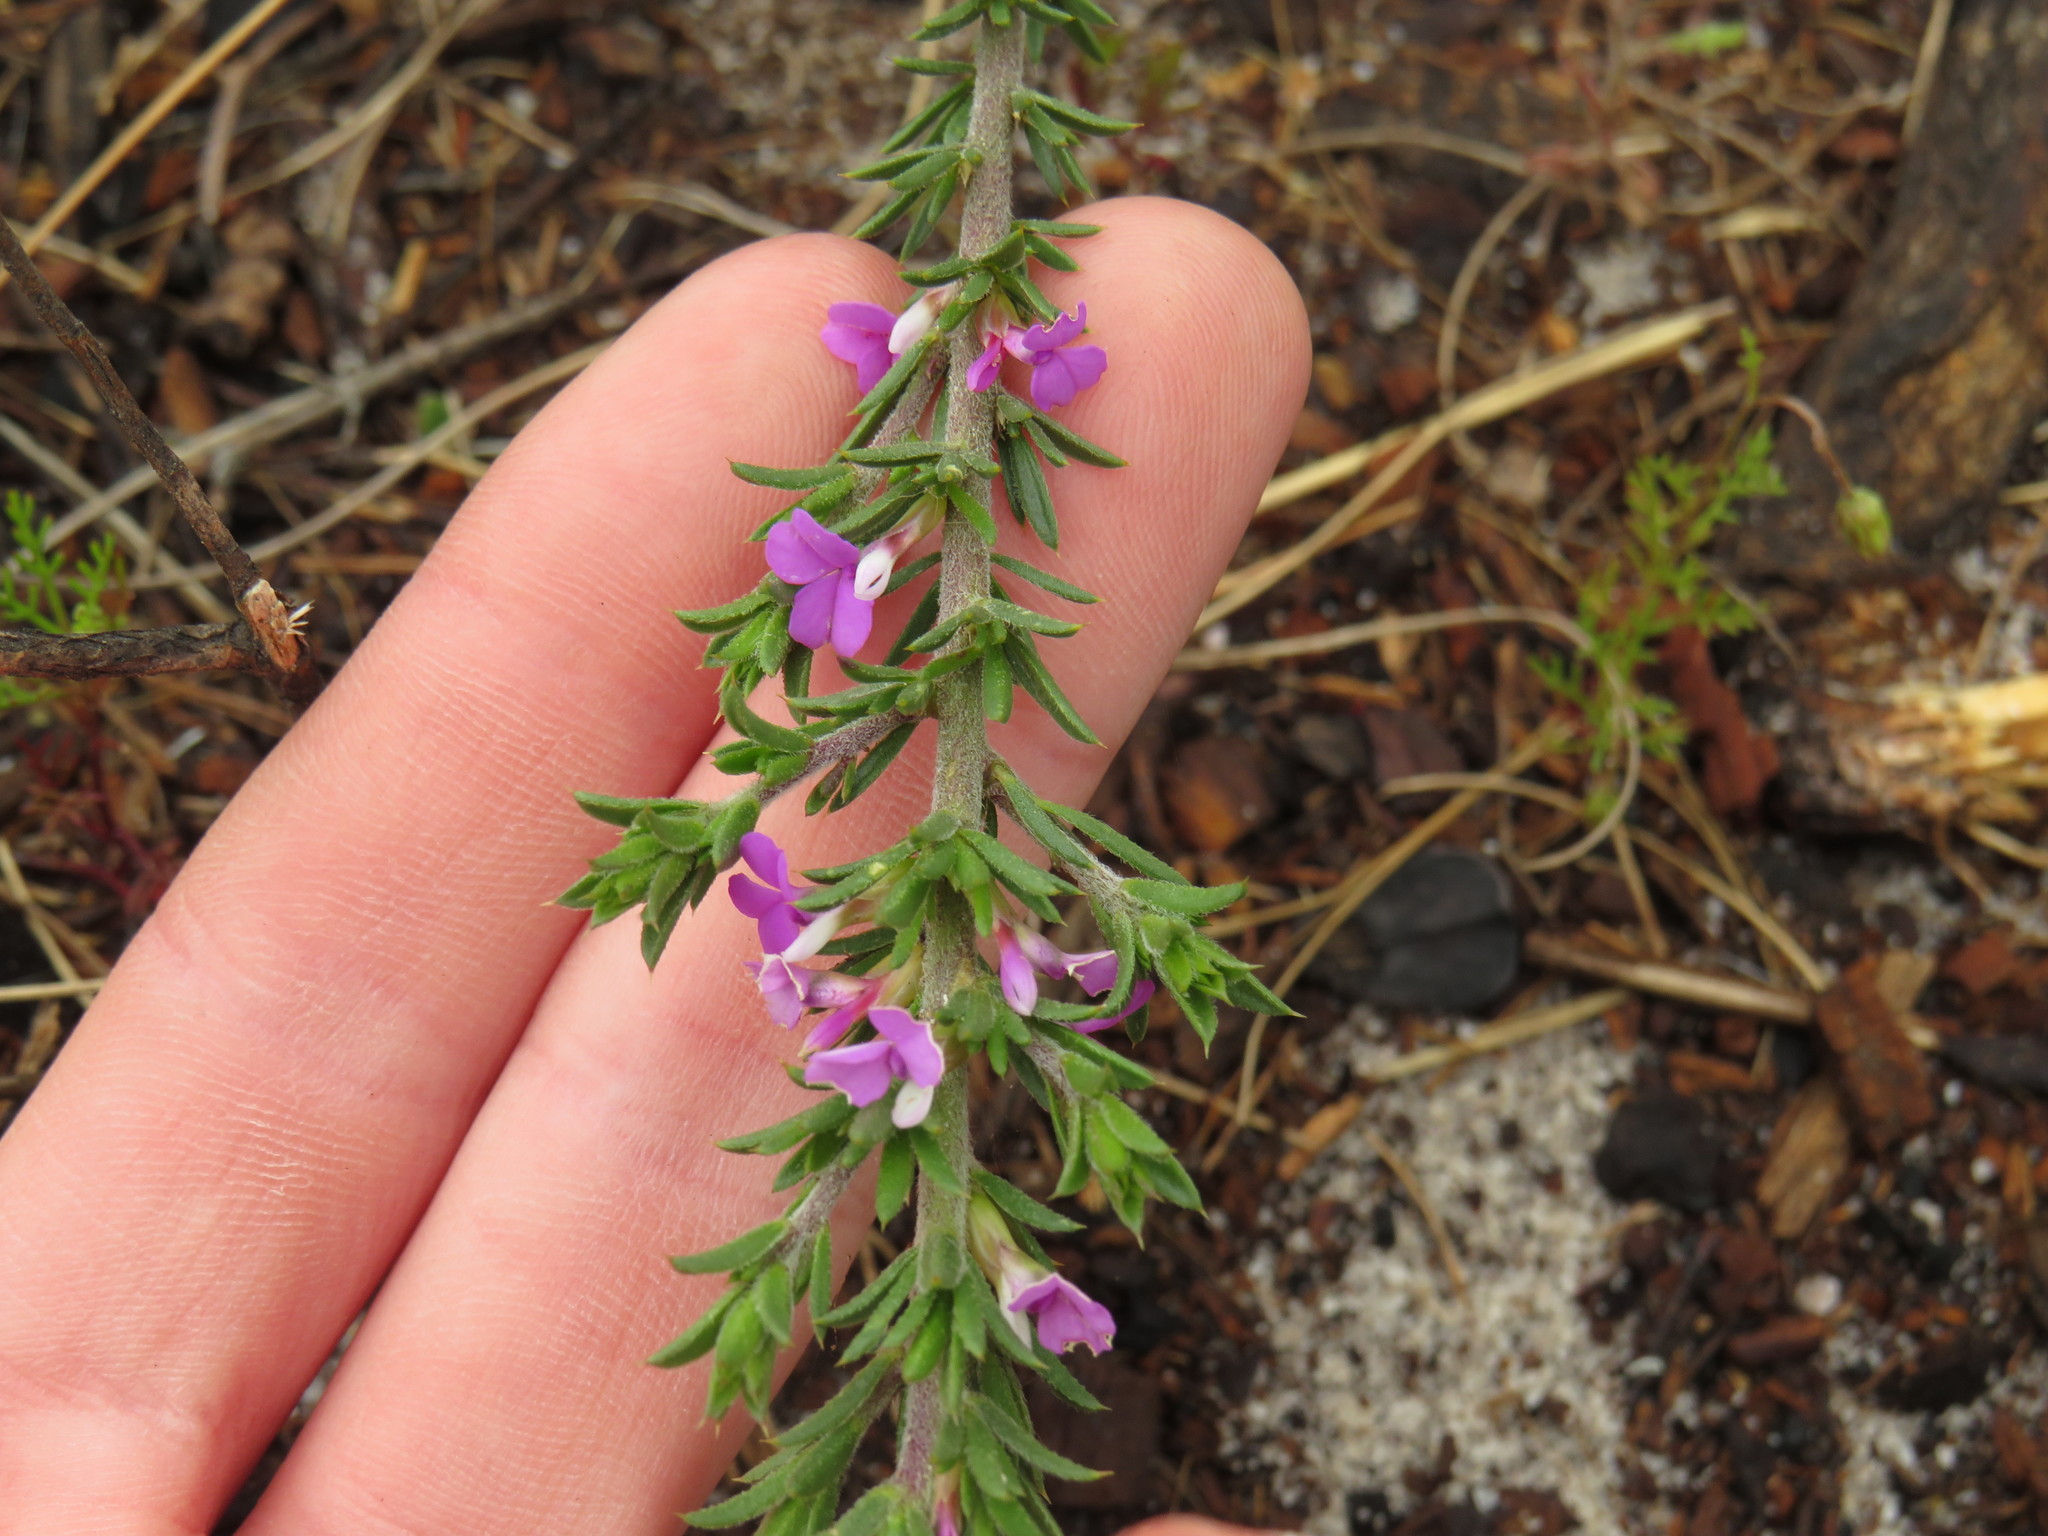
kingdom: Plantae
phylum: Tracheophyta
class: Magnoliopsida
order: Fabales
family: Polygalaceae
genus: Muraltia
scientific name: Muraltia
